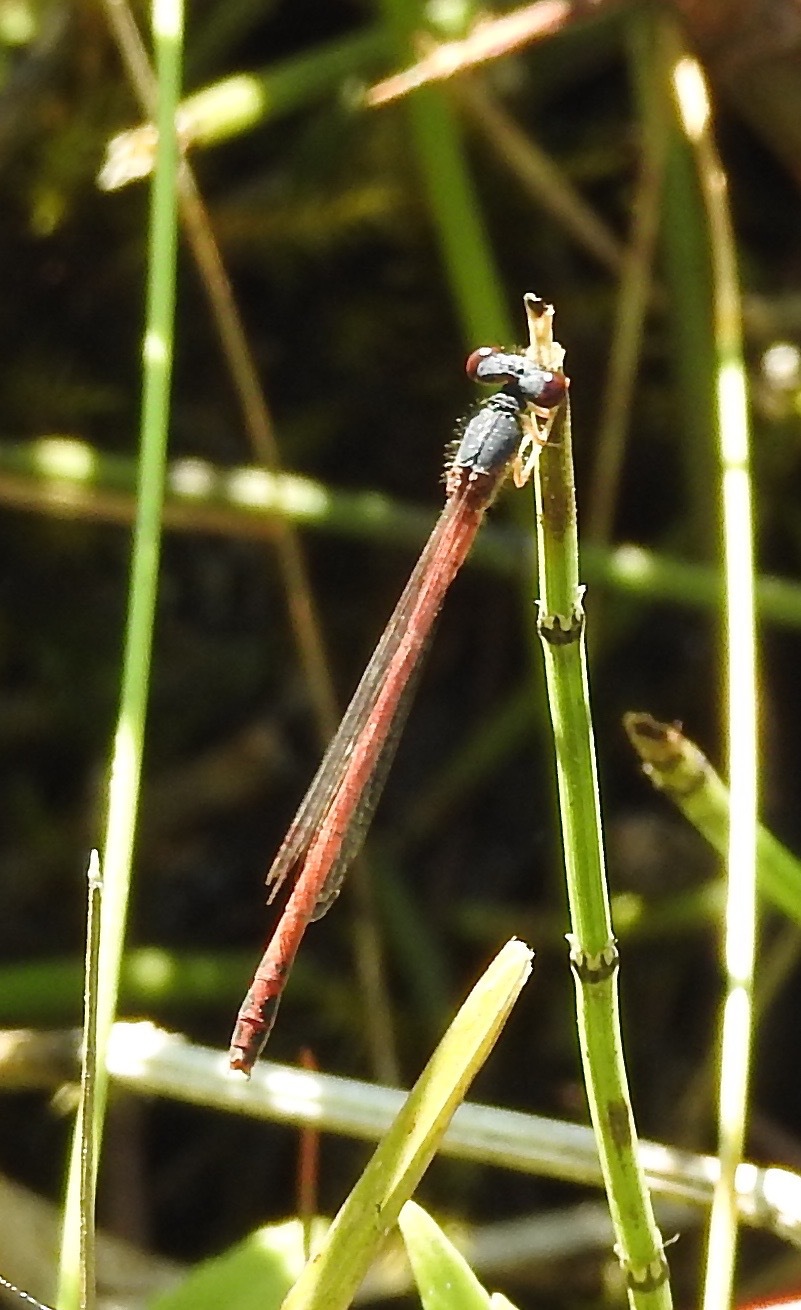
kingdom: Animalia
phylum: Arthropoda
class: Insecta
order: Odonata
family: Coenagrionidae
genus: Amphiagrion
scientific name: Amphiagrion saucium
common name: Eastern red damsel
